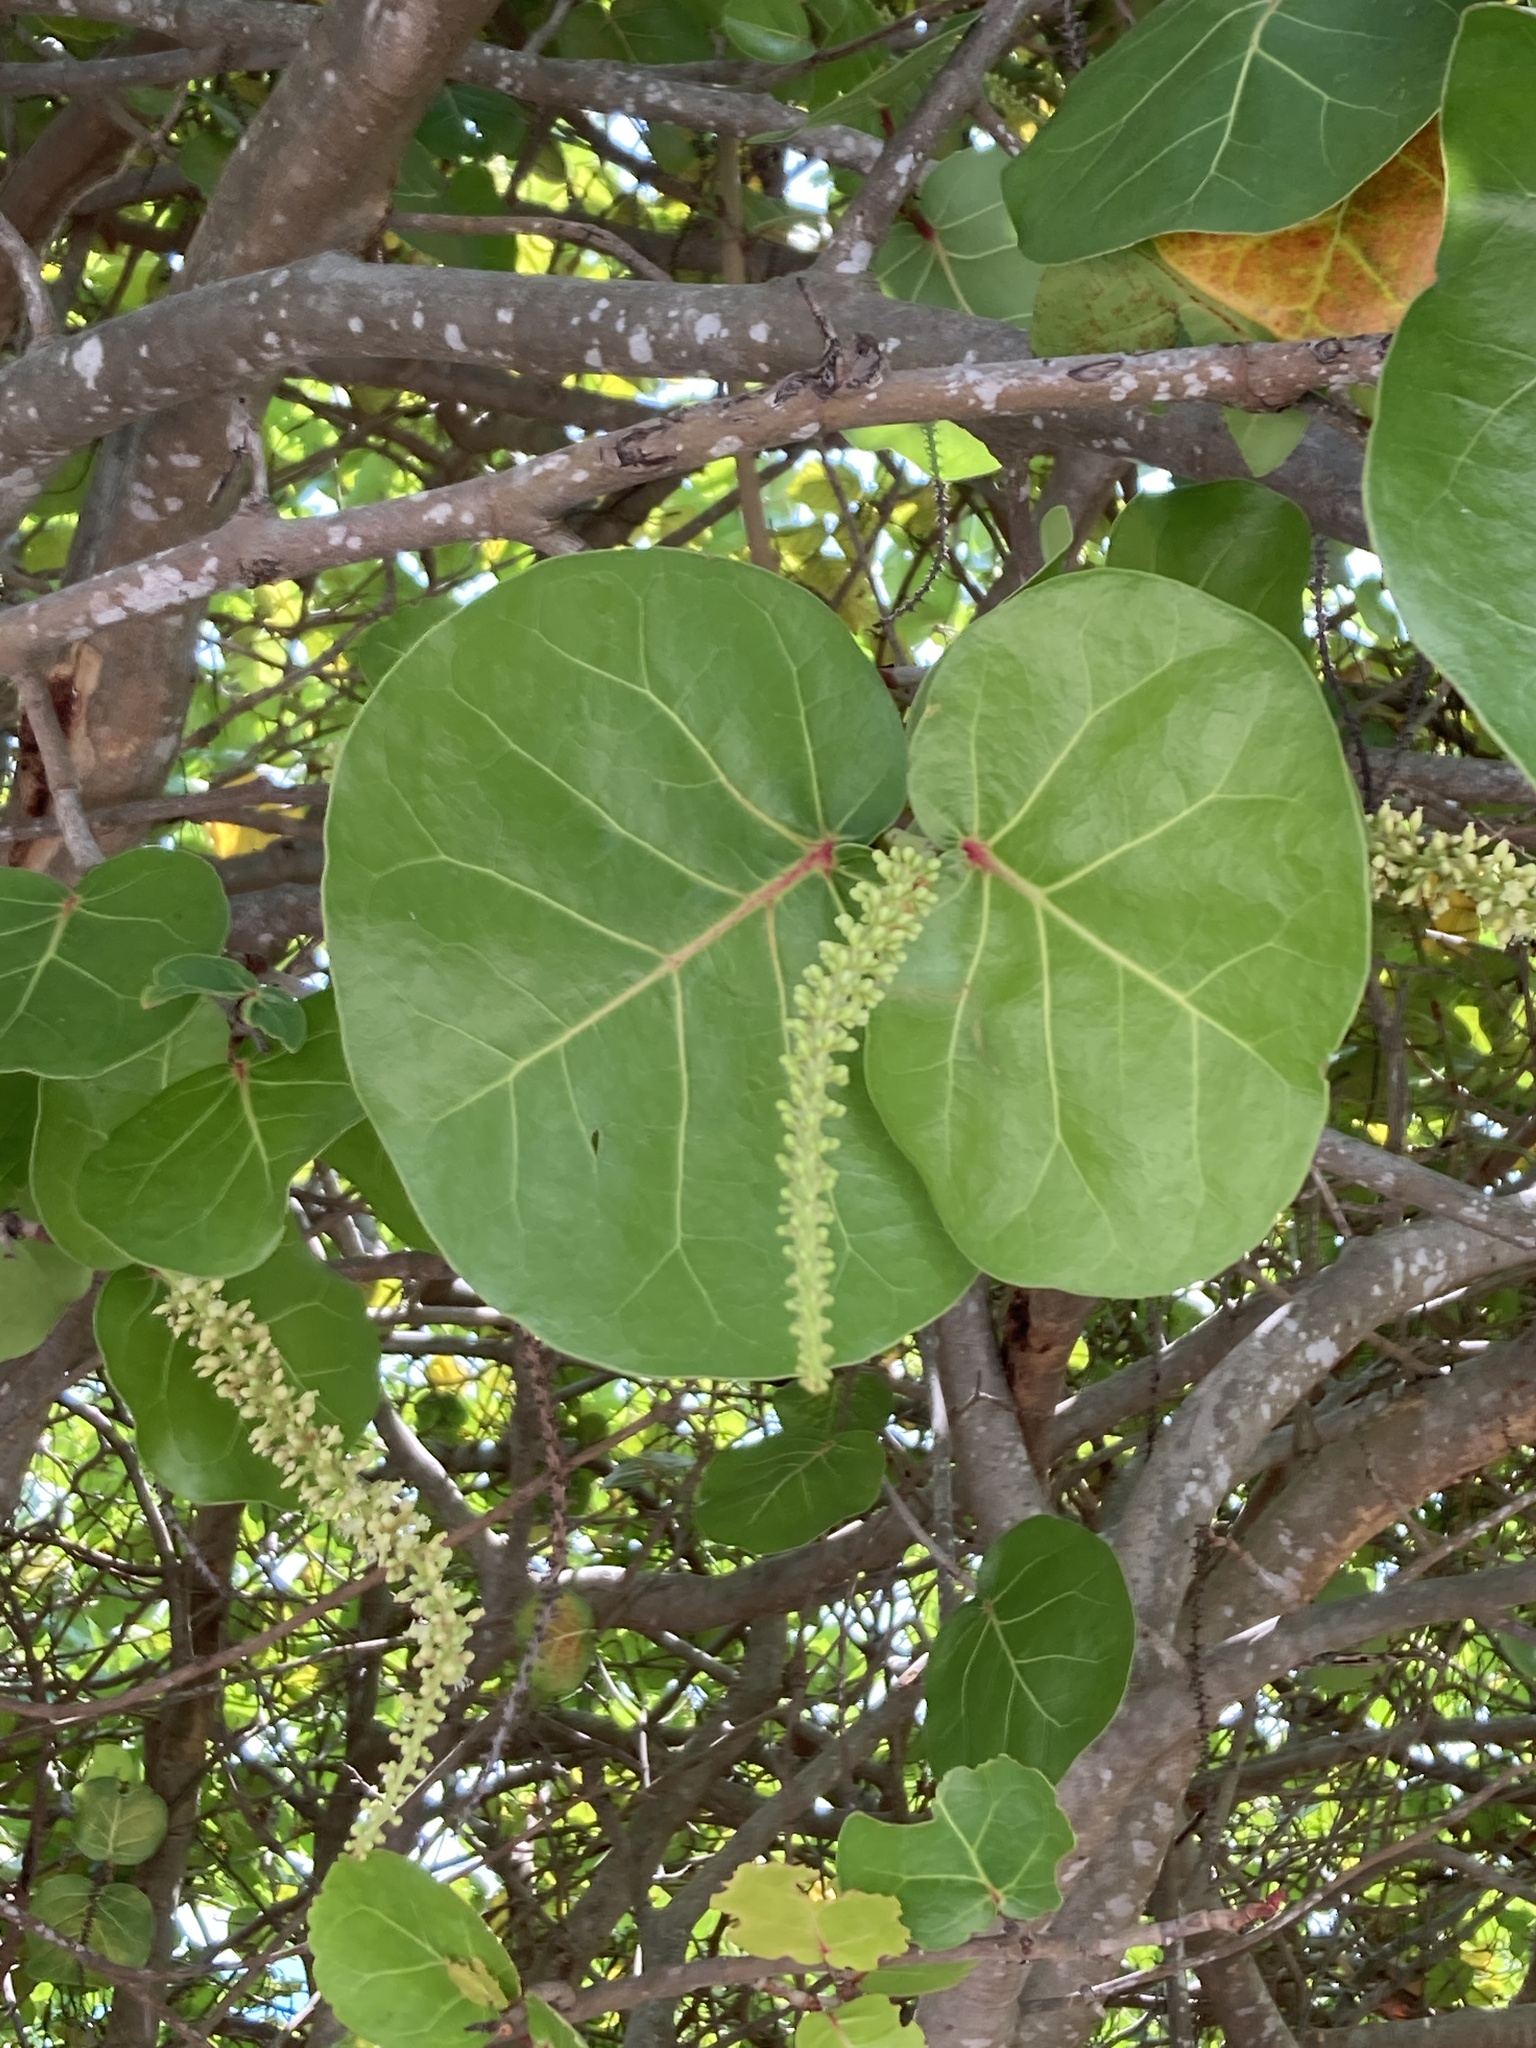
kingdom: Plantae
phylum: Tracheophyta
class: Magnoliopsida
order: Caryophyllales
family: Polygonaceae
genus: Coccoloba
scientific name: Coccoloba uvifera
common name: Seagrape
